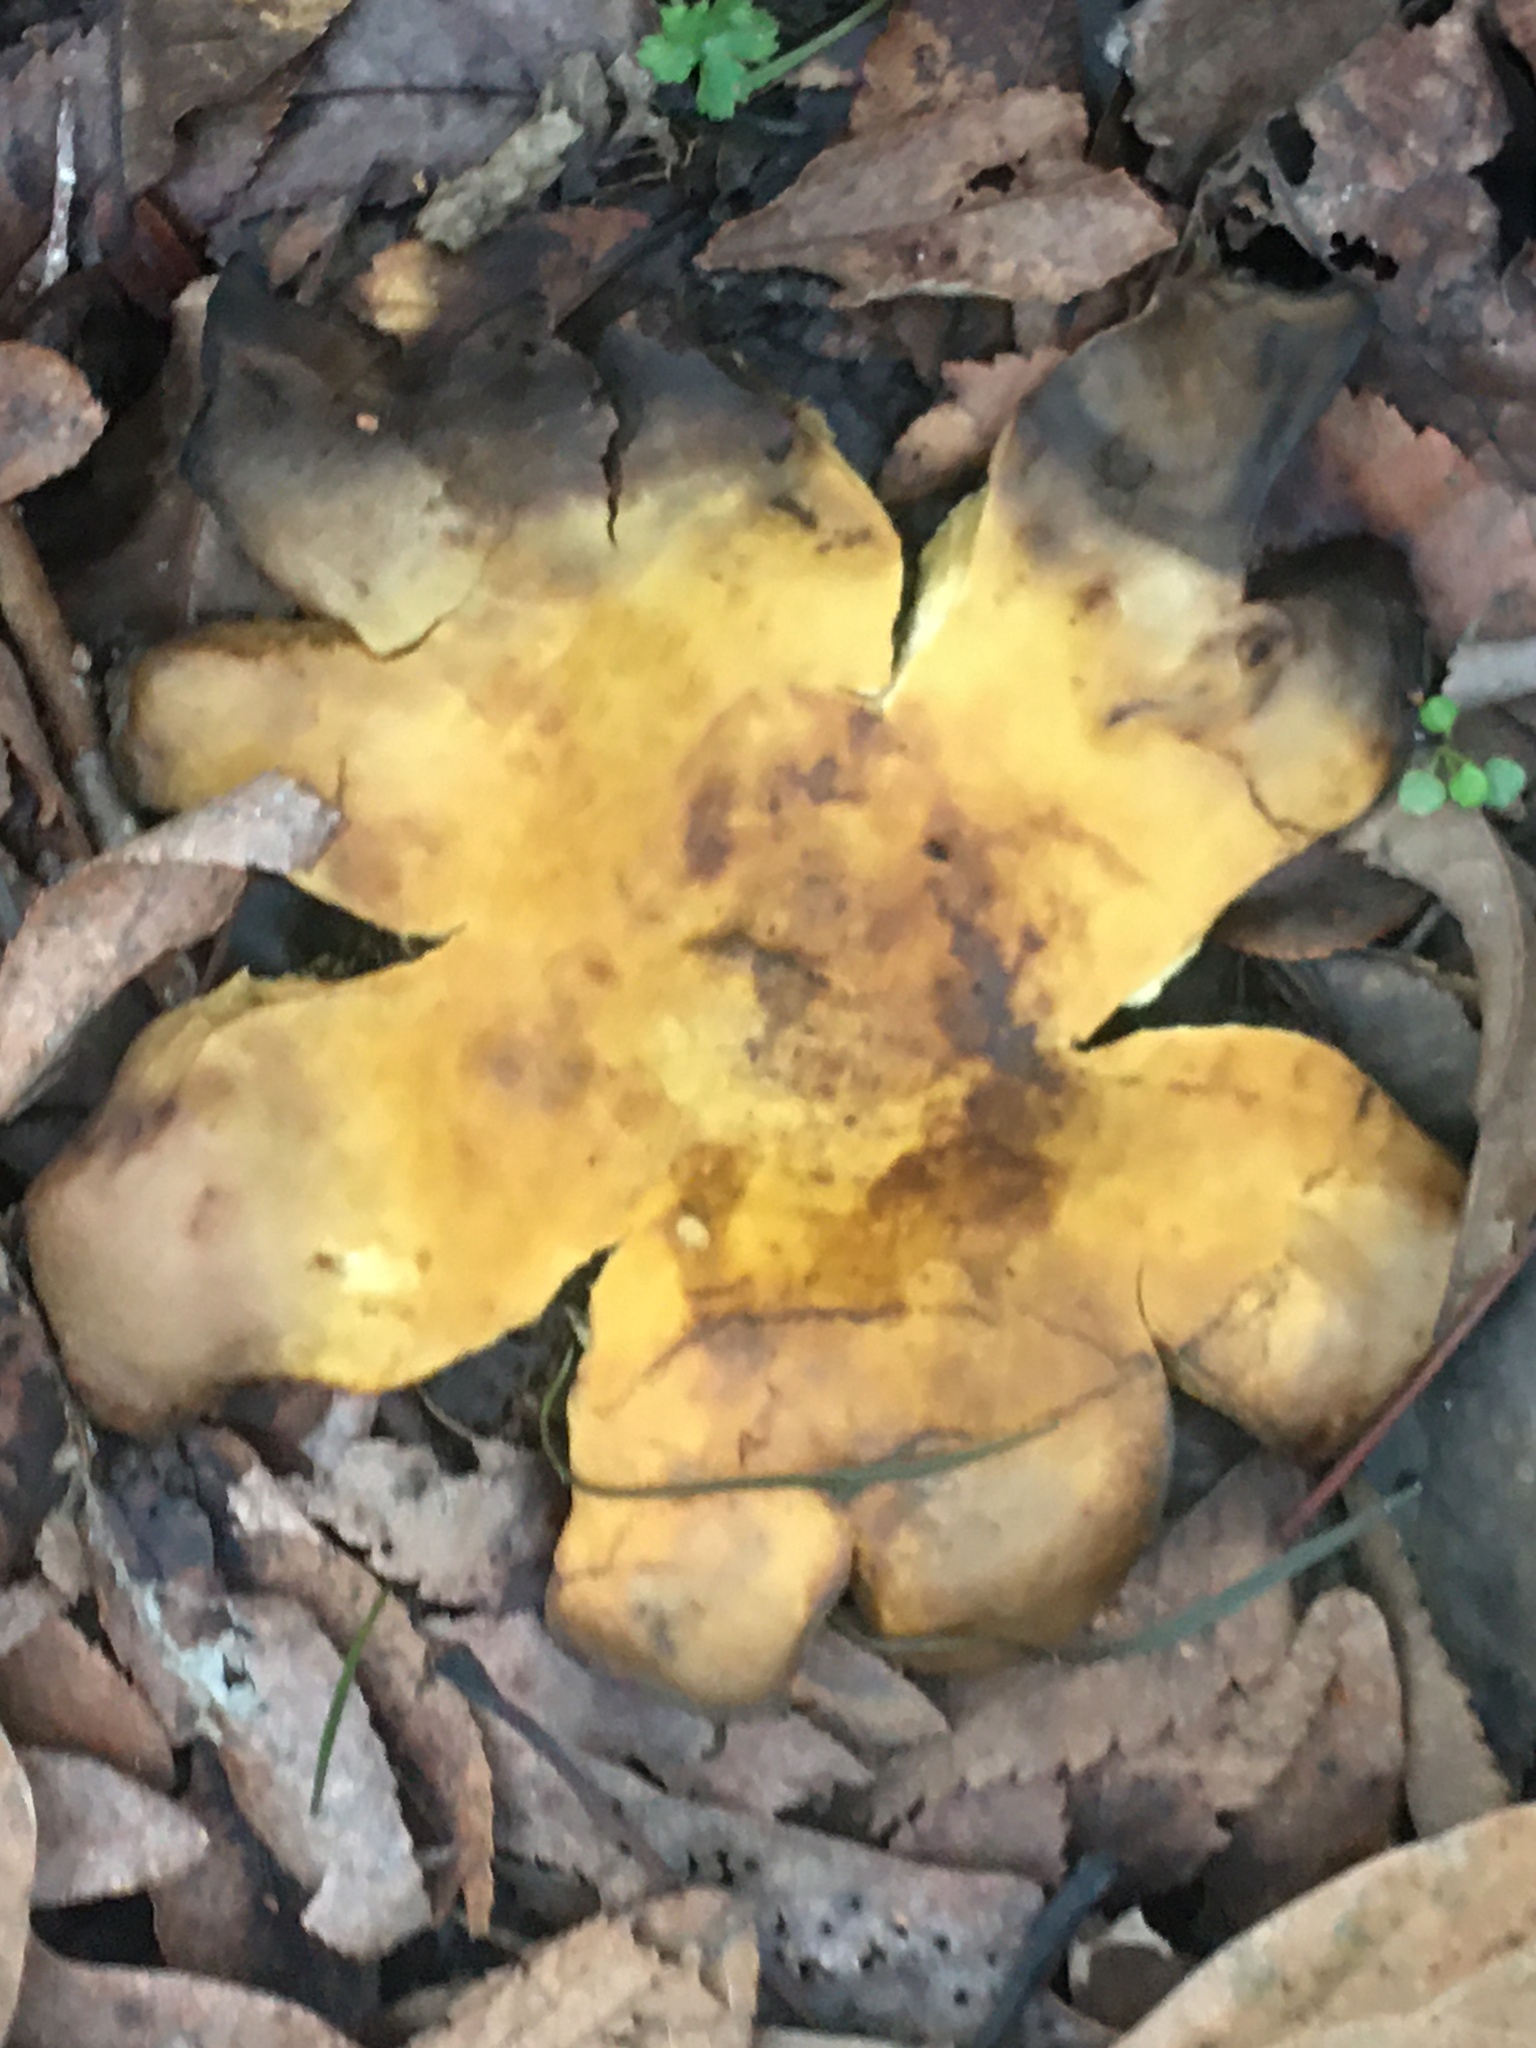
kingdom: Fungi
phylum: Basidiomycota
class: Agaricomycetes
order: Boletales
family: Sclerodermataceae
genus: Scleroderma
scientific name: Scleroderma polyrhizum
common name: Many-rooted earthball
